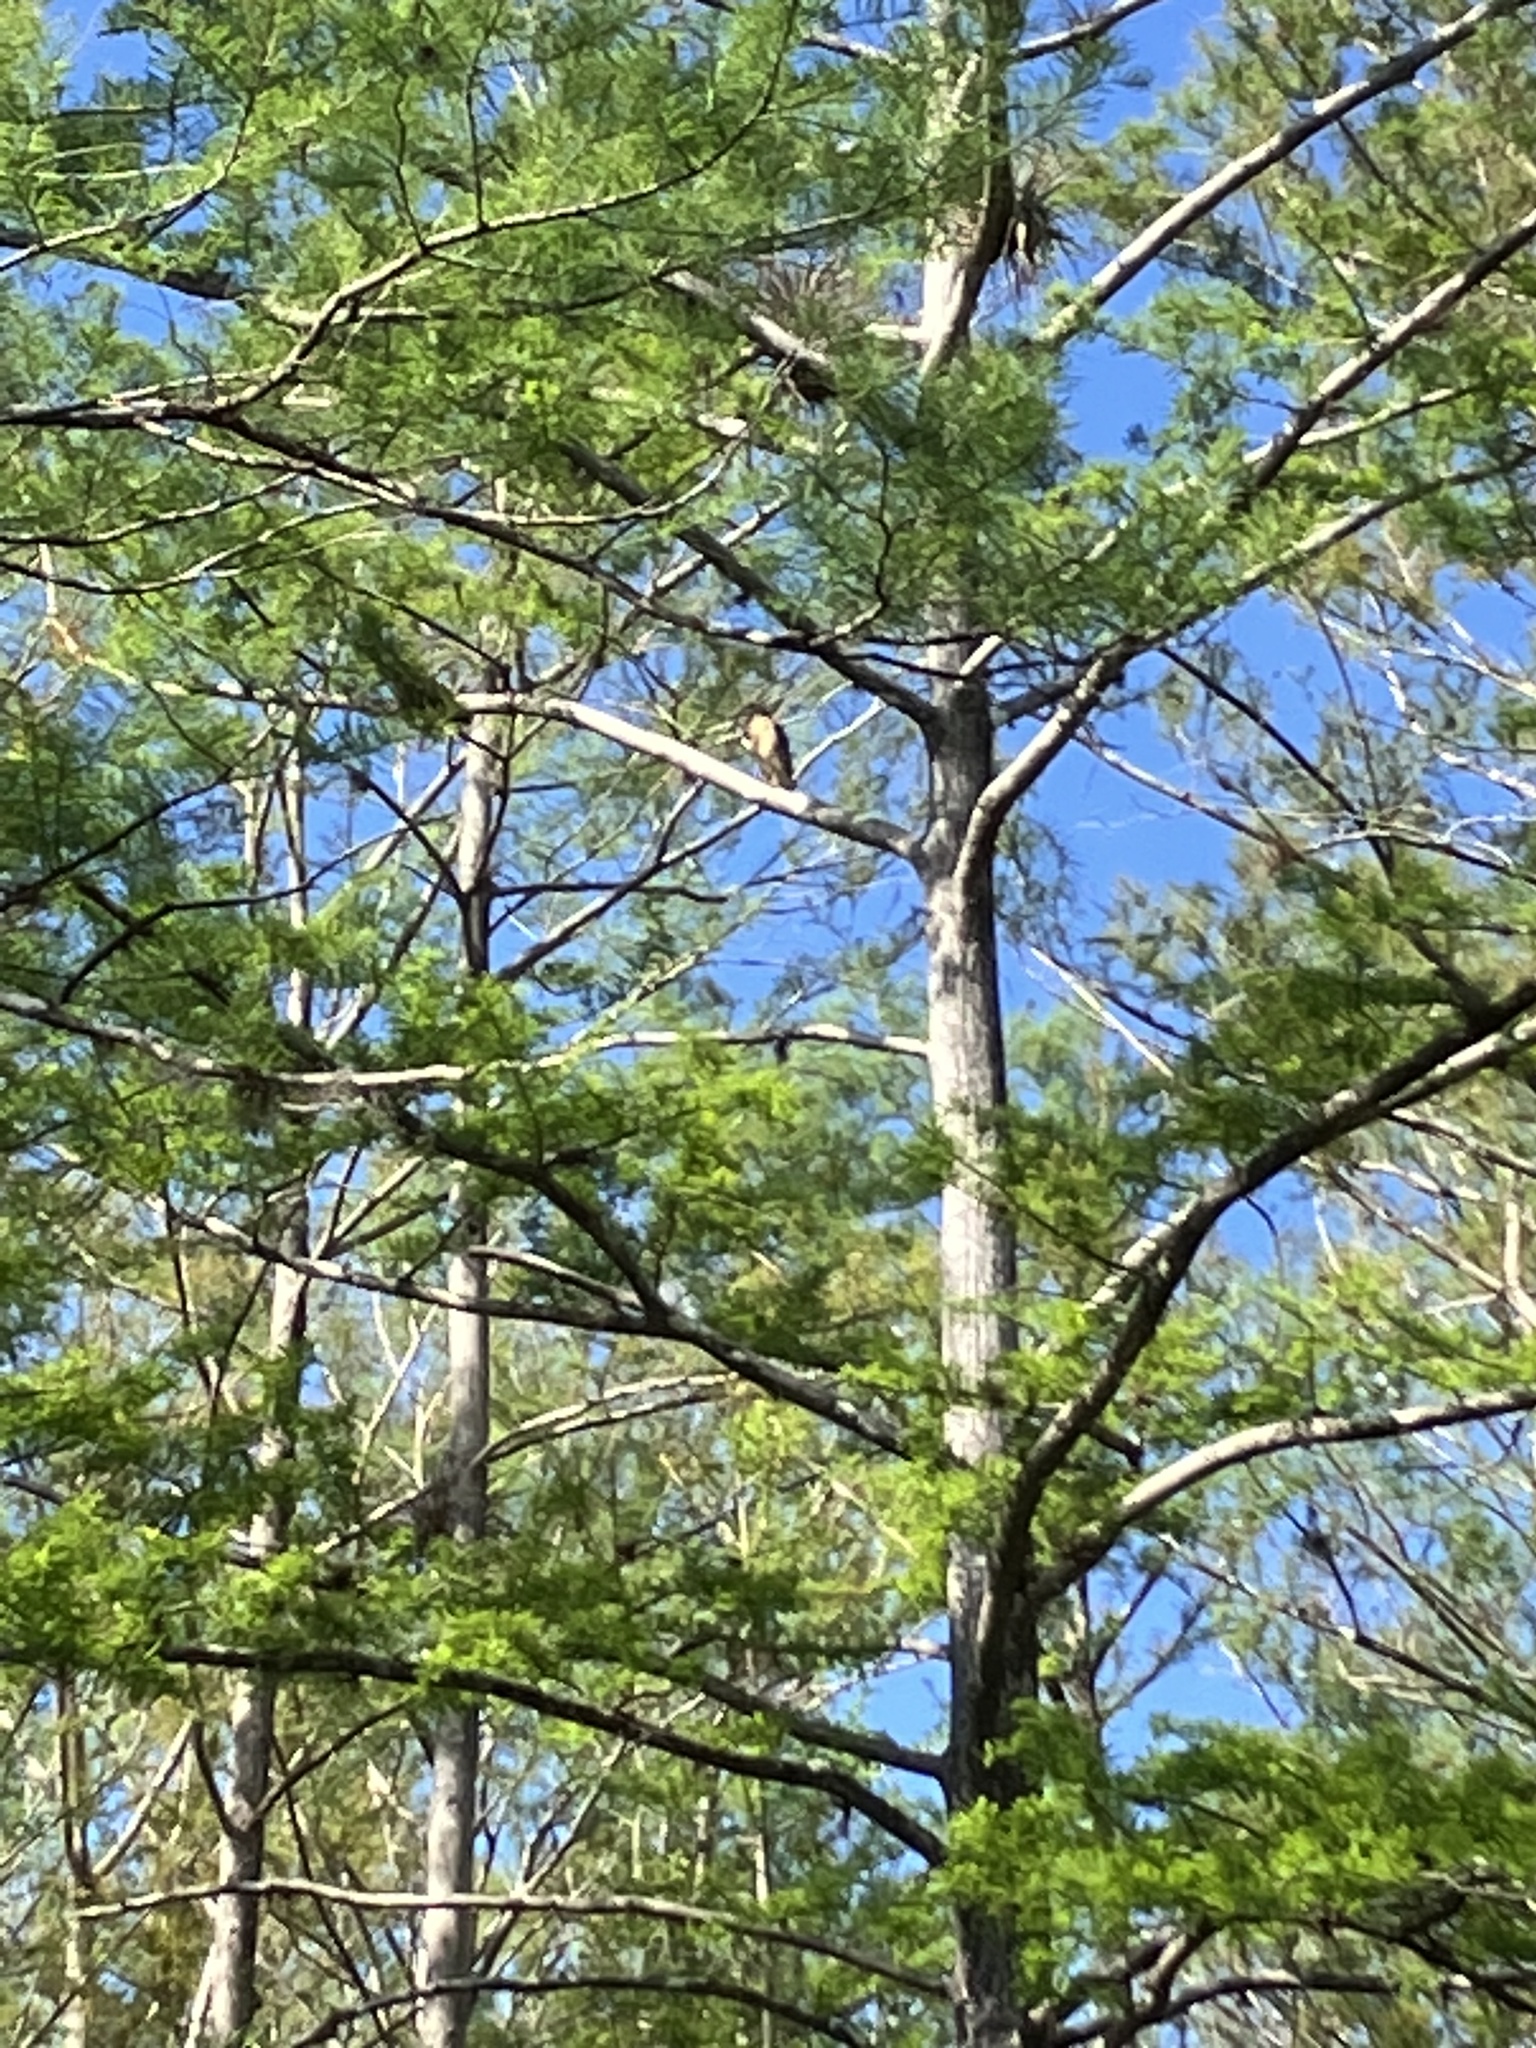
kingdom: Animalia
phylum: Chordata
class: Aves
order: Accipitriformes
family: Accipitridae
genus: Buteo
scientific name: Buteo lineatus
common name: Red-shouldered hawk
